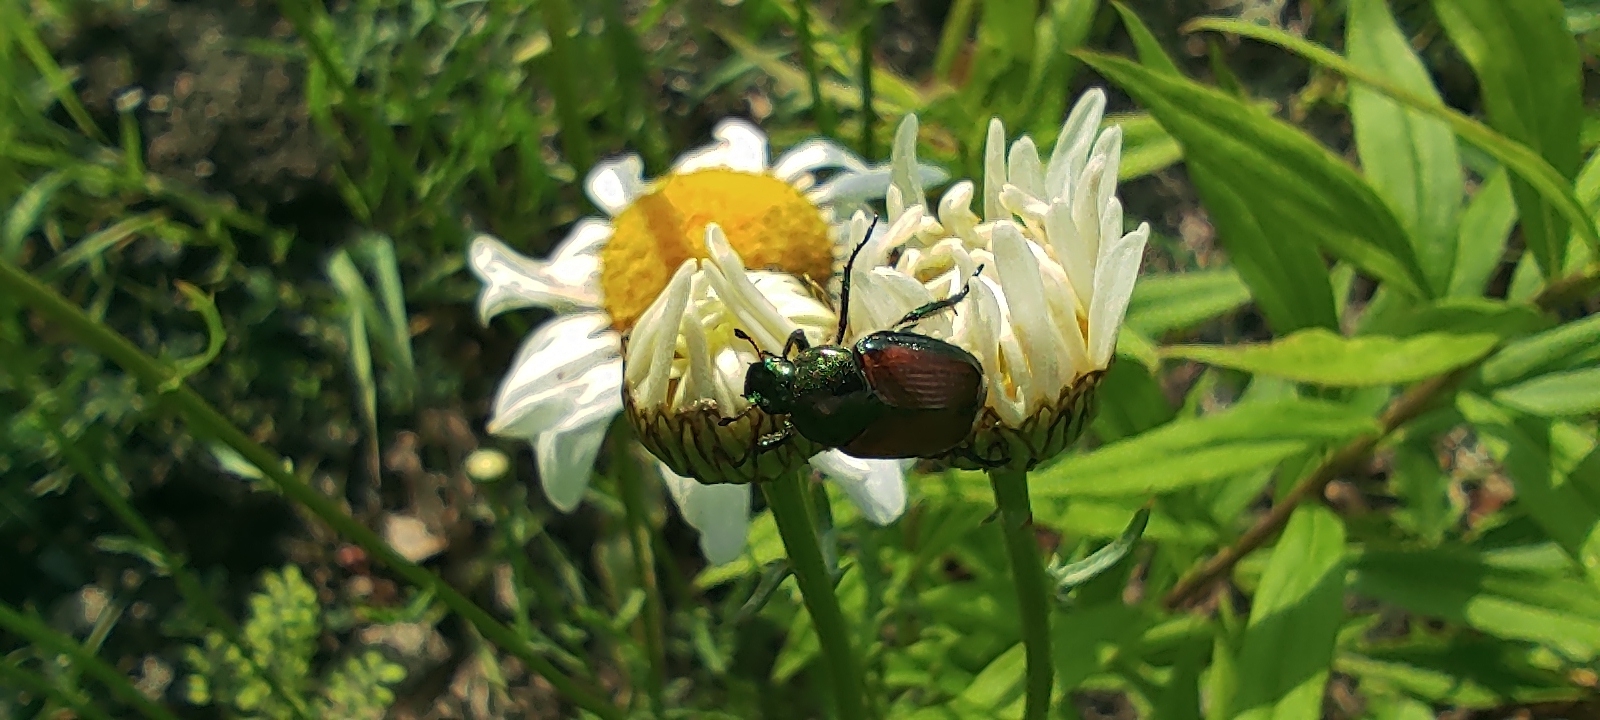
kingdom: Animalia
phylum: Arthropoda
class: Insecta
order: Coleoptera
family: Scarabaeidae
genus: Popillia
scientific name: Popillia japonica
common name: Japanese beetle
